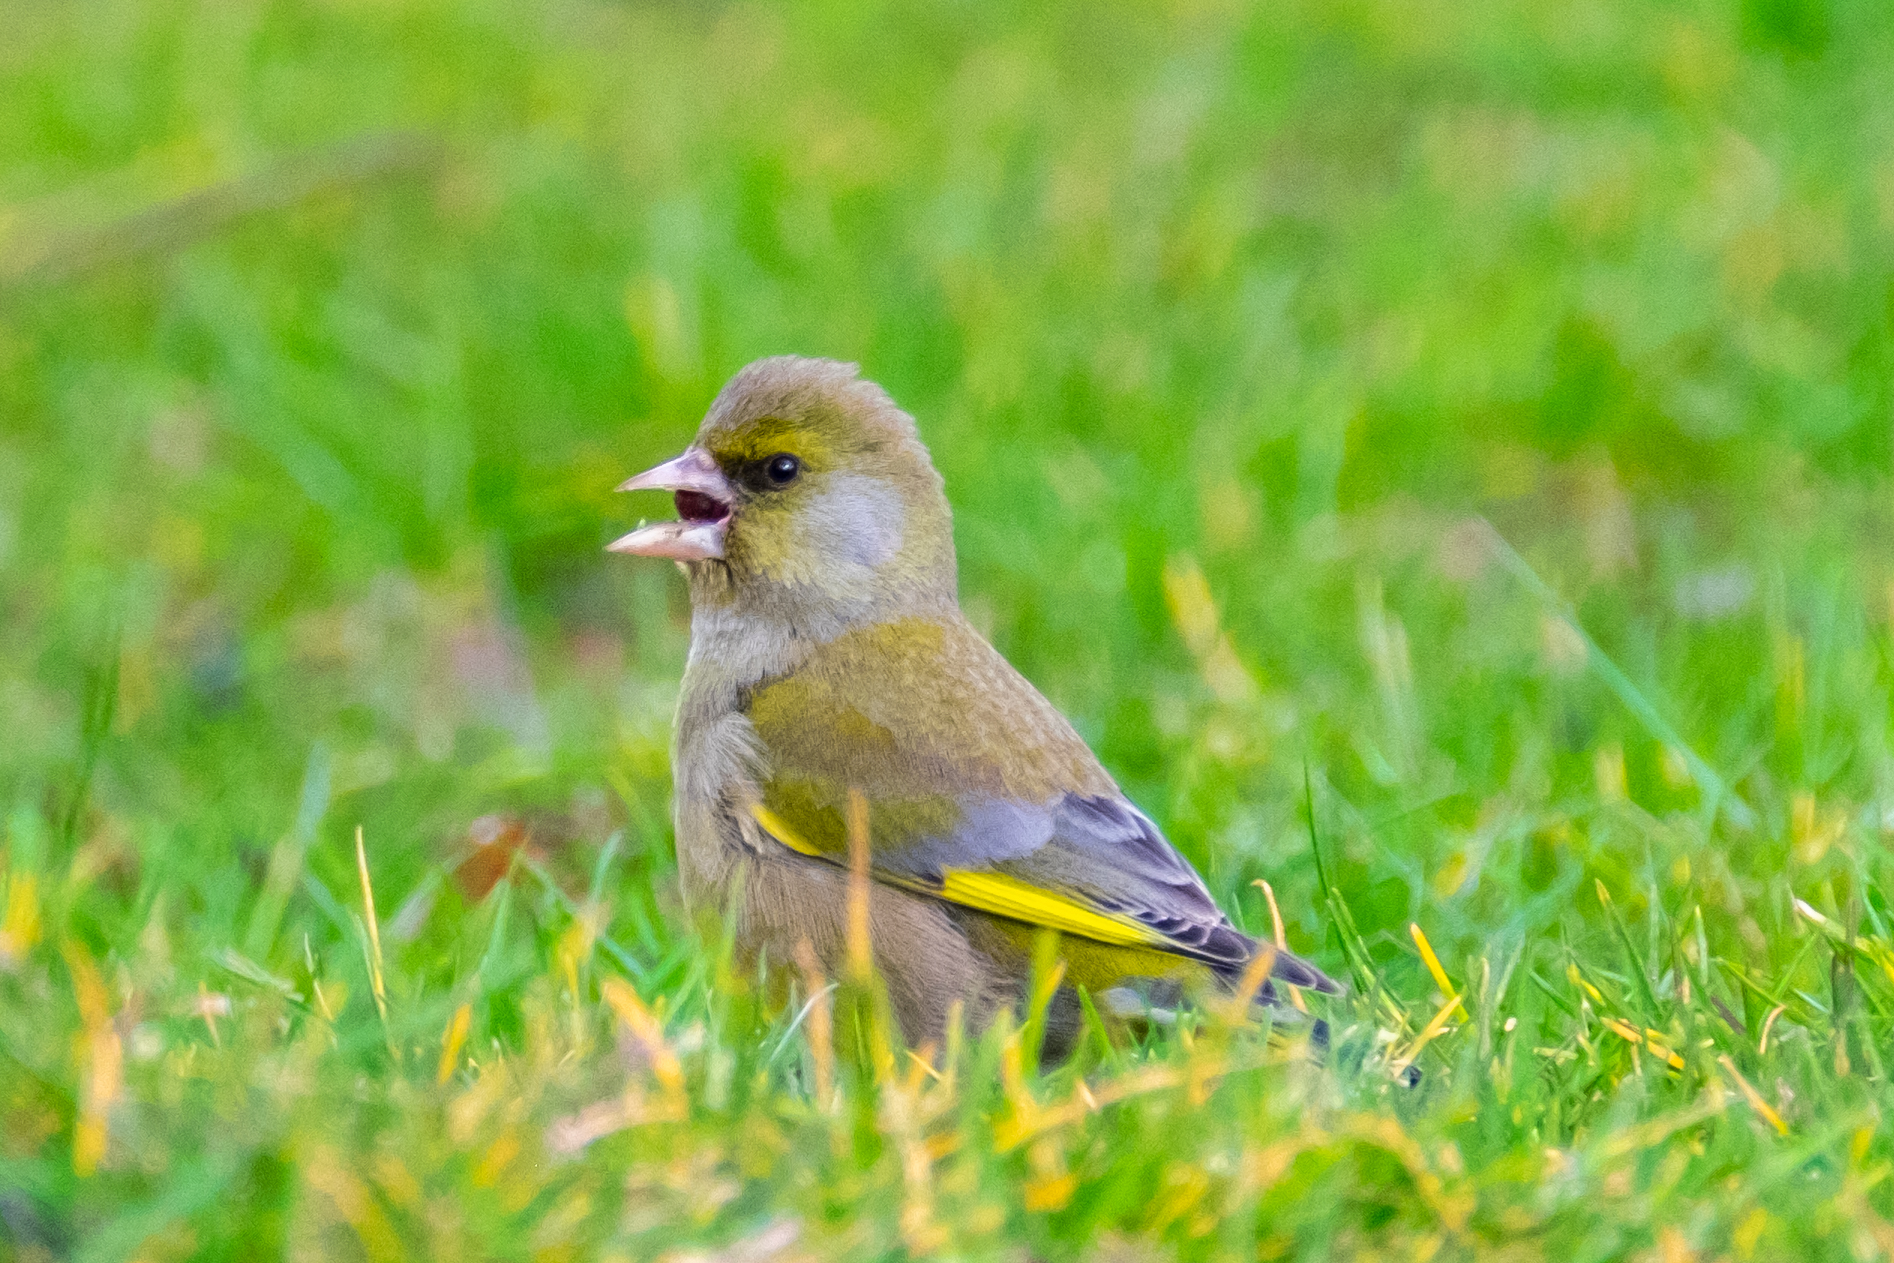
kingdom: Plantae
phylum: Tracheophyta
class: Liliopsida
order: Poales
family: Poaceae
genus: Chloris
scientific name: Chloris chloris
